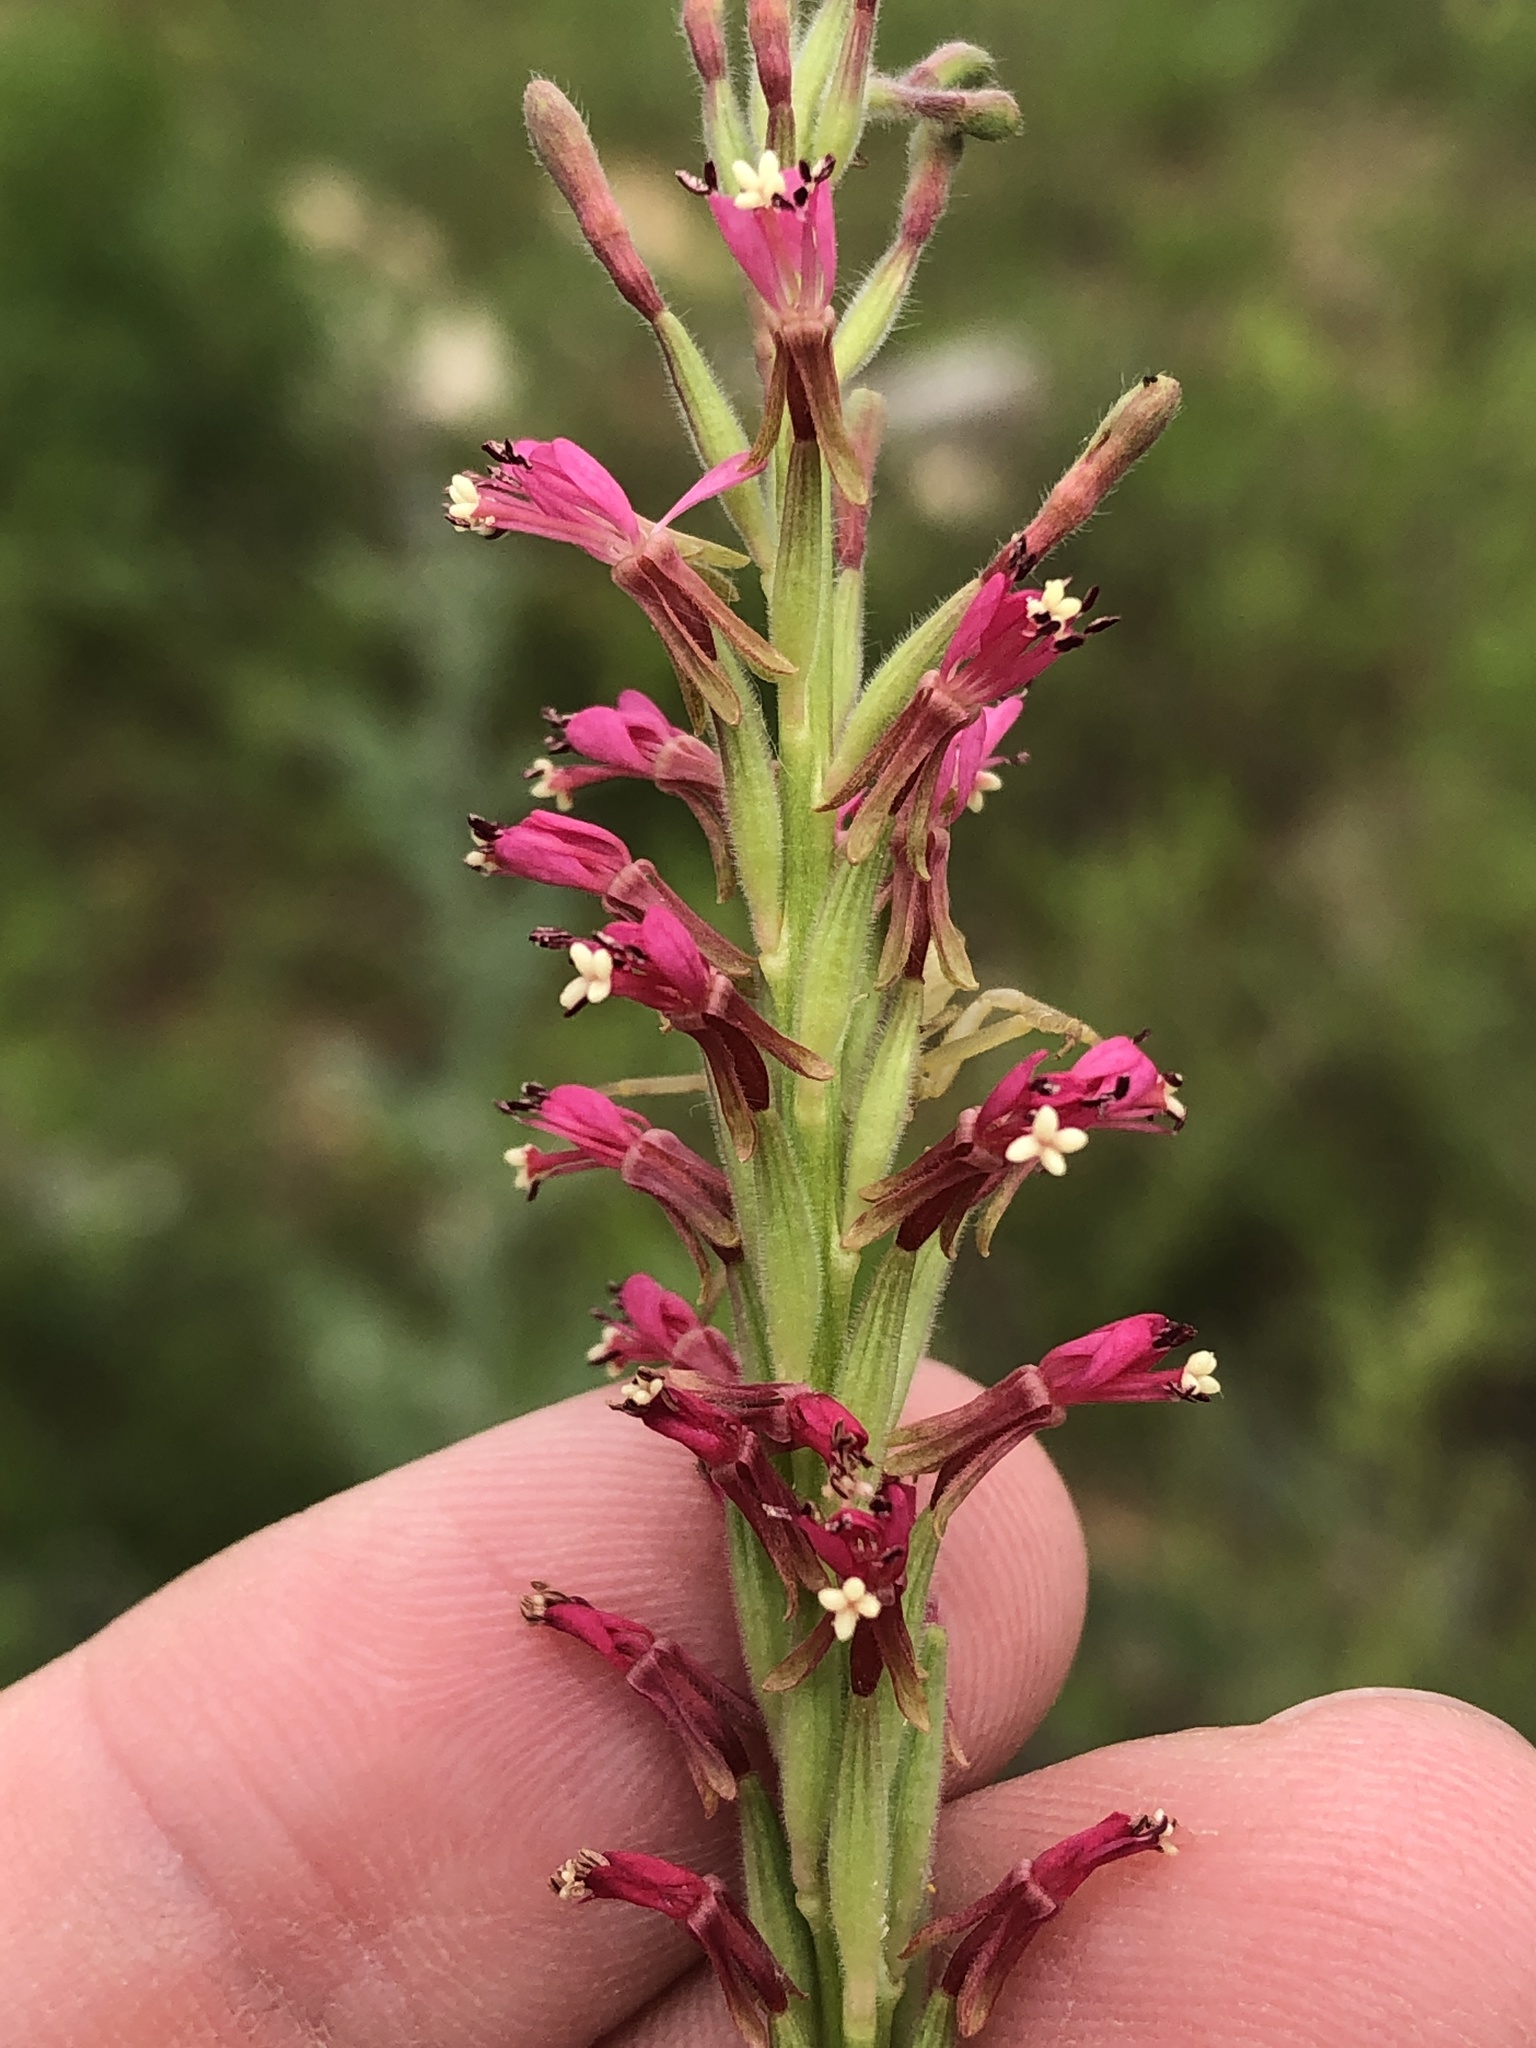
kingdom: Plantae
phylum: Tracheophyta
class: Magnoliopsida
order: Myrtales
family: Onagraceae
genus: Oenothera
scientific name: Oenothera curtiflora
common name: Velvetweed
